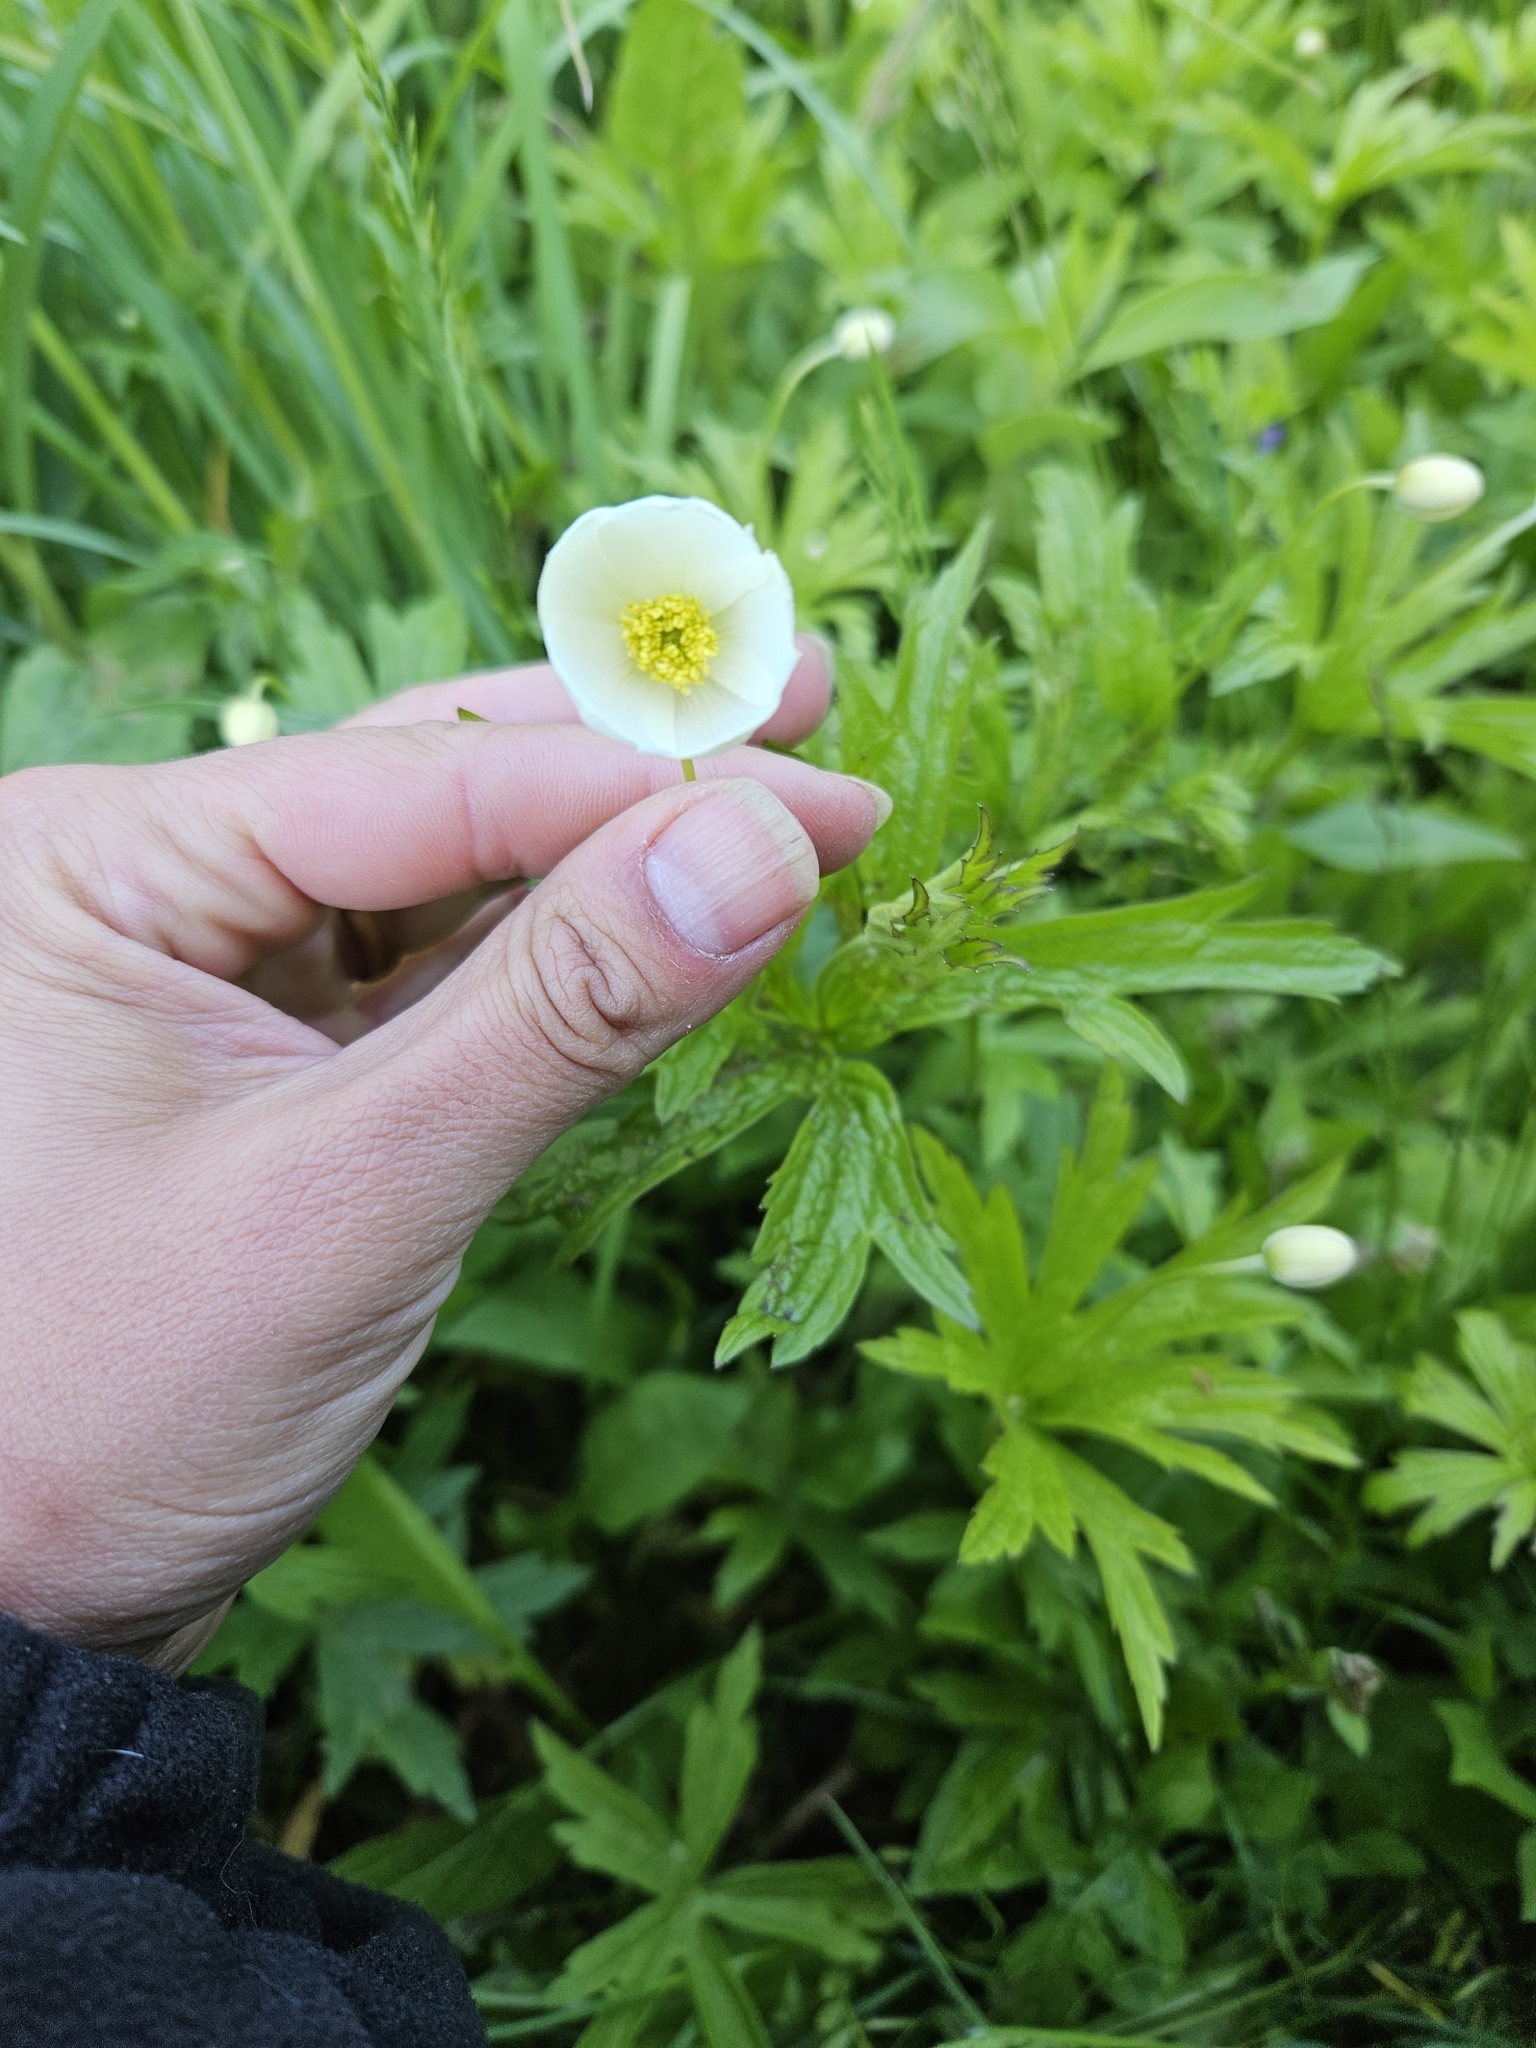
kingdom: Plantae
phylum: Tracheophyta
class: Magnoliopsida
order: Ranunculales
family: Ranunculaceae
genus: Anemonastrum
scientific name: Anemonastrum canadense
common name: Canada anemone
